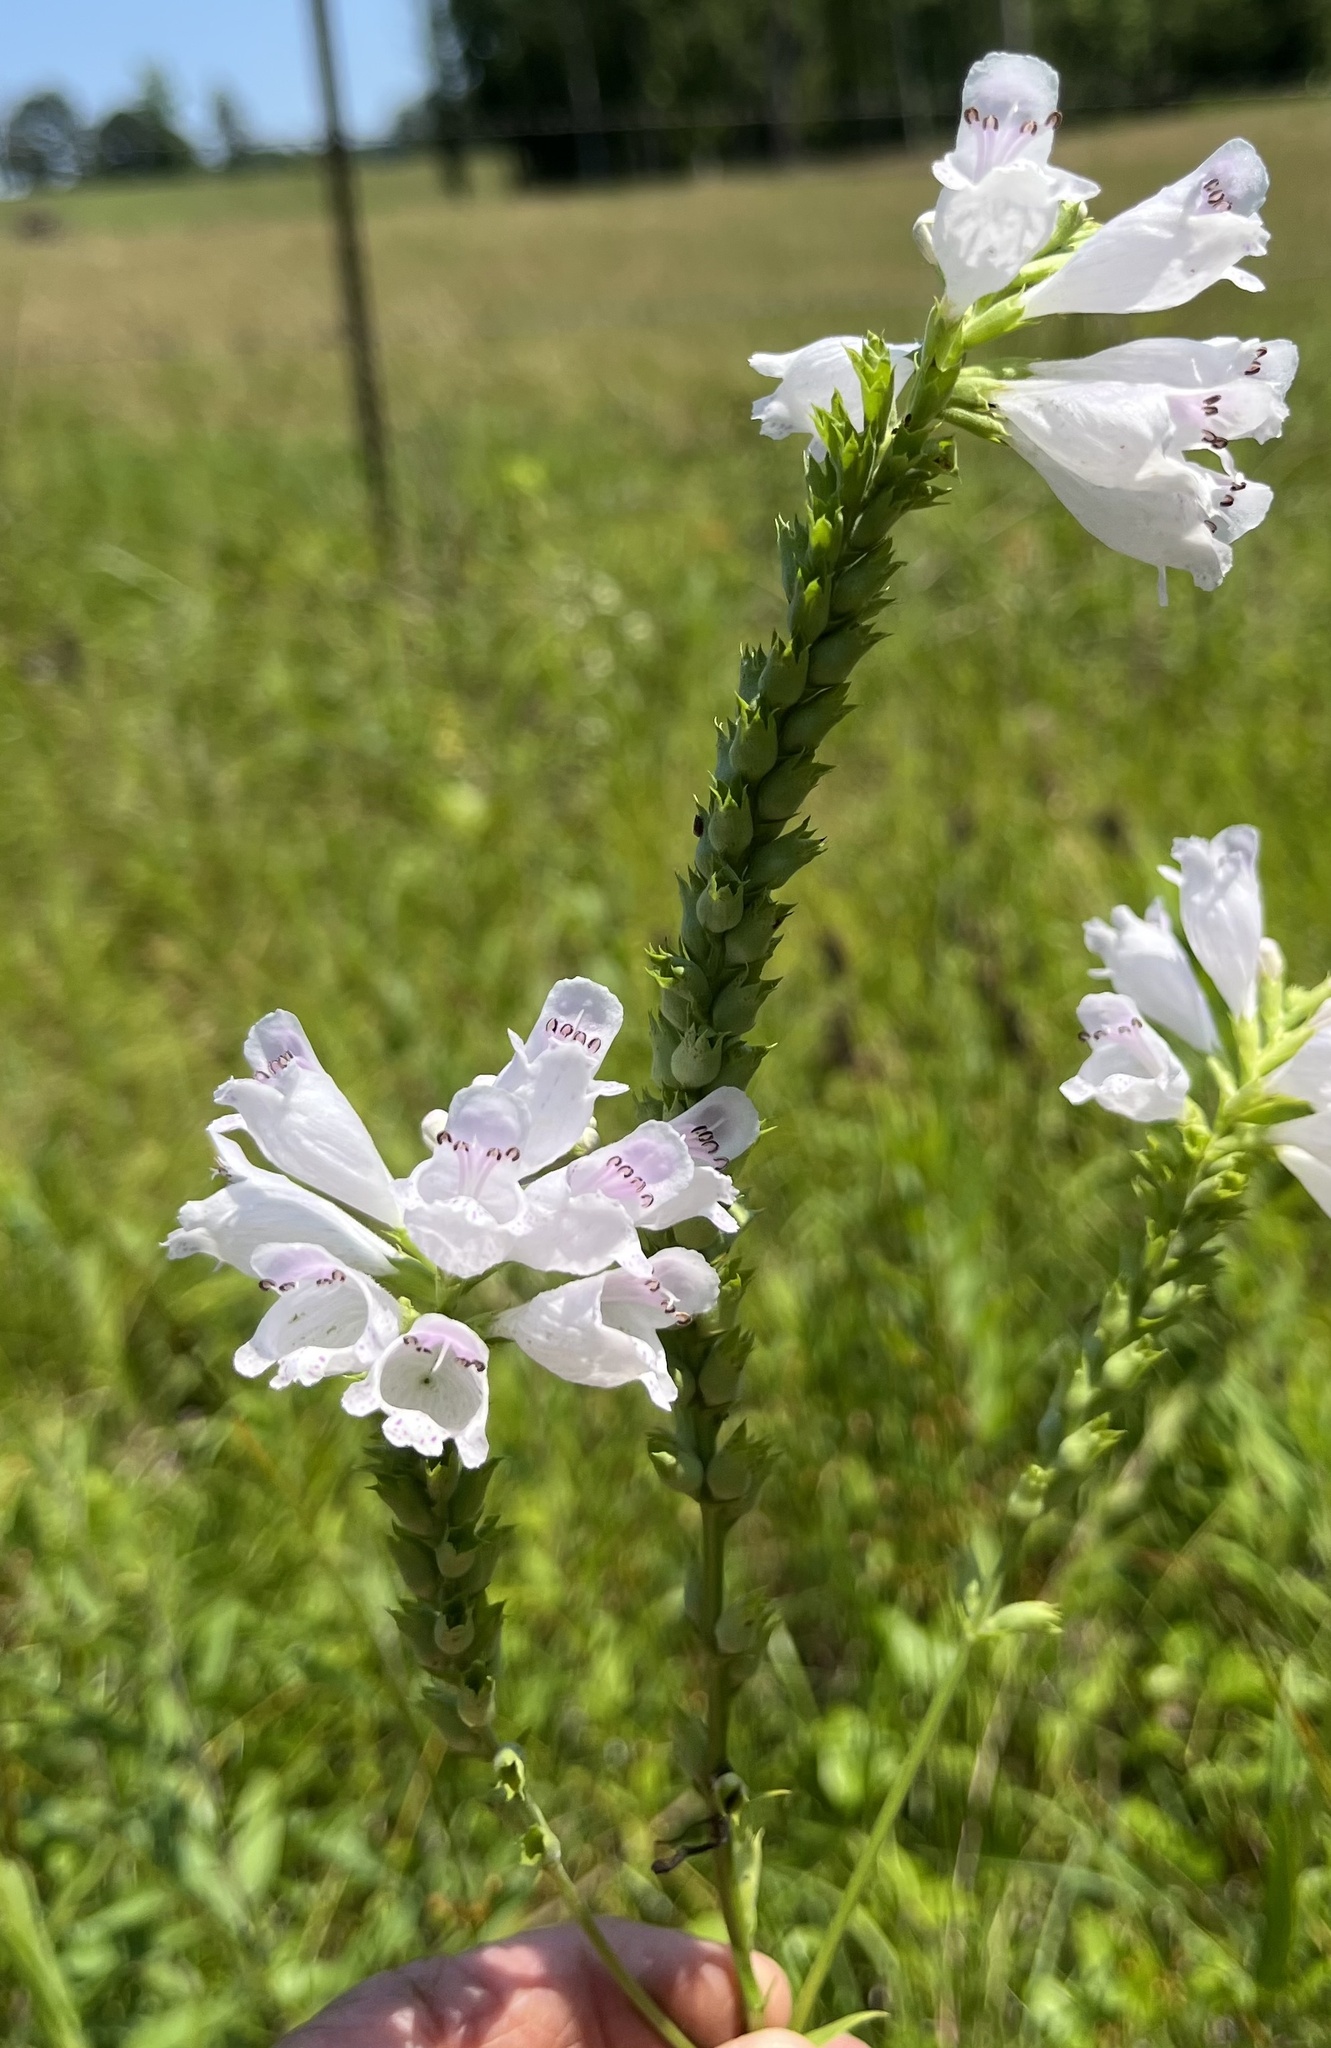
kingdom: Plantae
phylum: Tracheophyta
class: Magnoliopsida
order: Lamiales
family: Lamiaceae
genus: Physostegia
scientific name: Physostegia angustifolia
